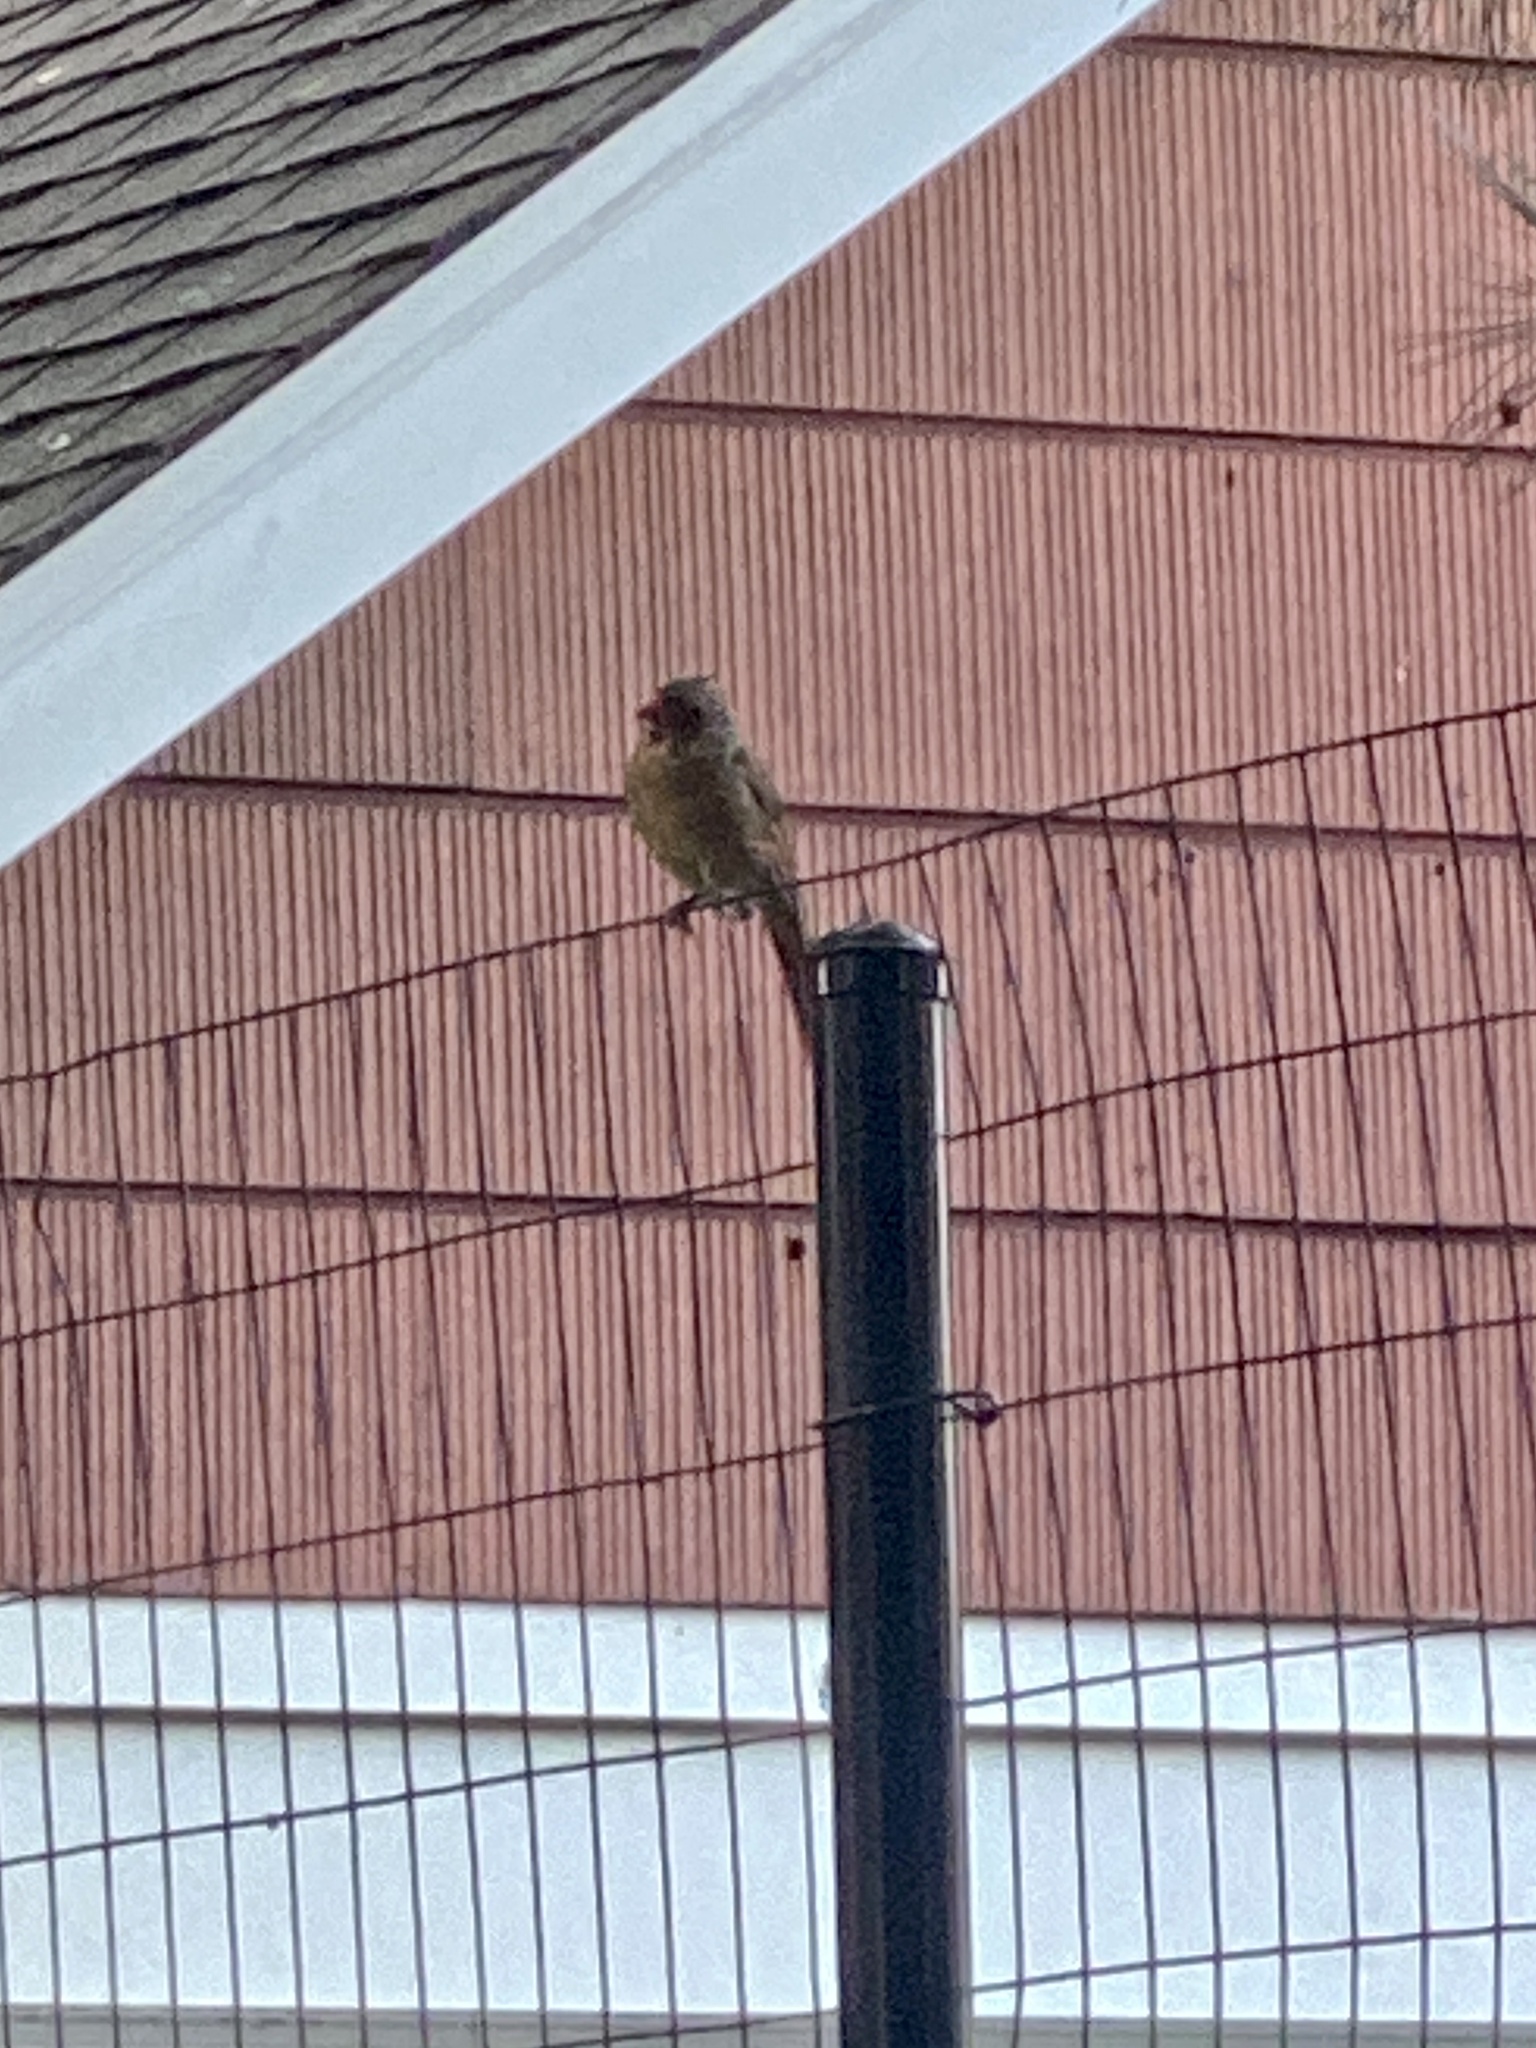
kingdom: Animalia
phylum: Chordata
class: Aves
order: Passeriformes
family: Cardinalidae
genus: Cardinalis
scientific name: Cardinalis cardinalis
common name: Northern cardinal
